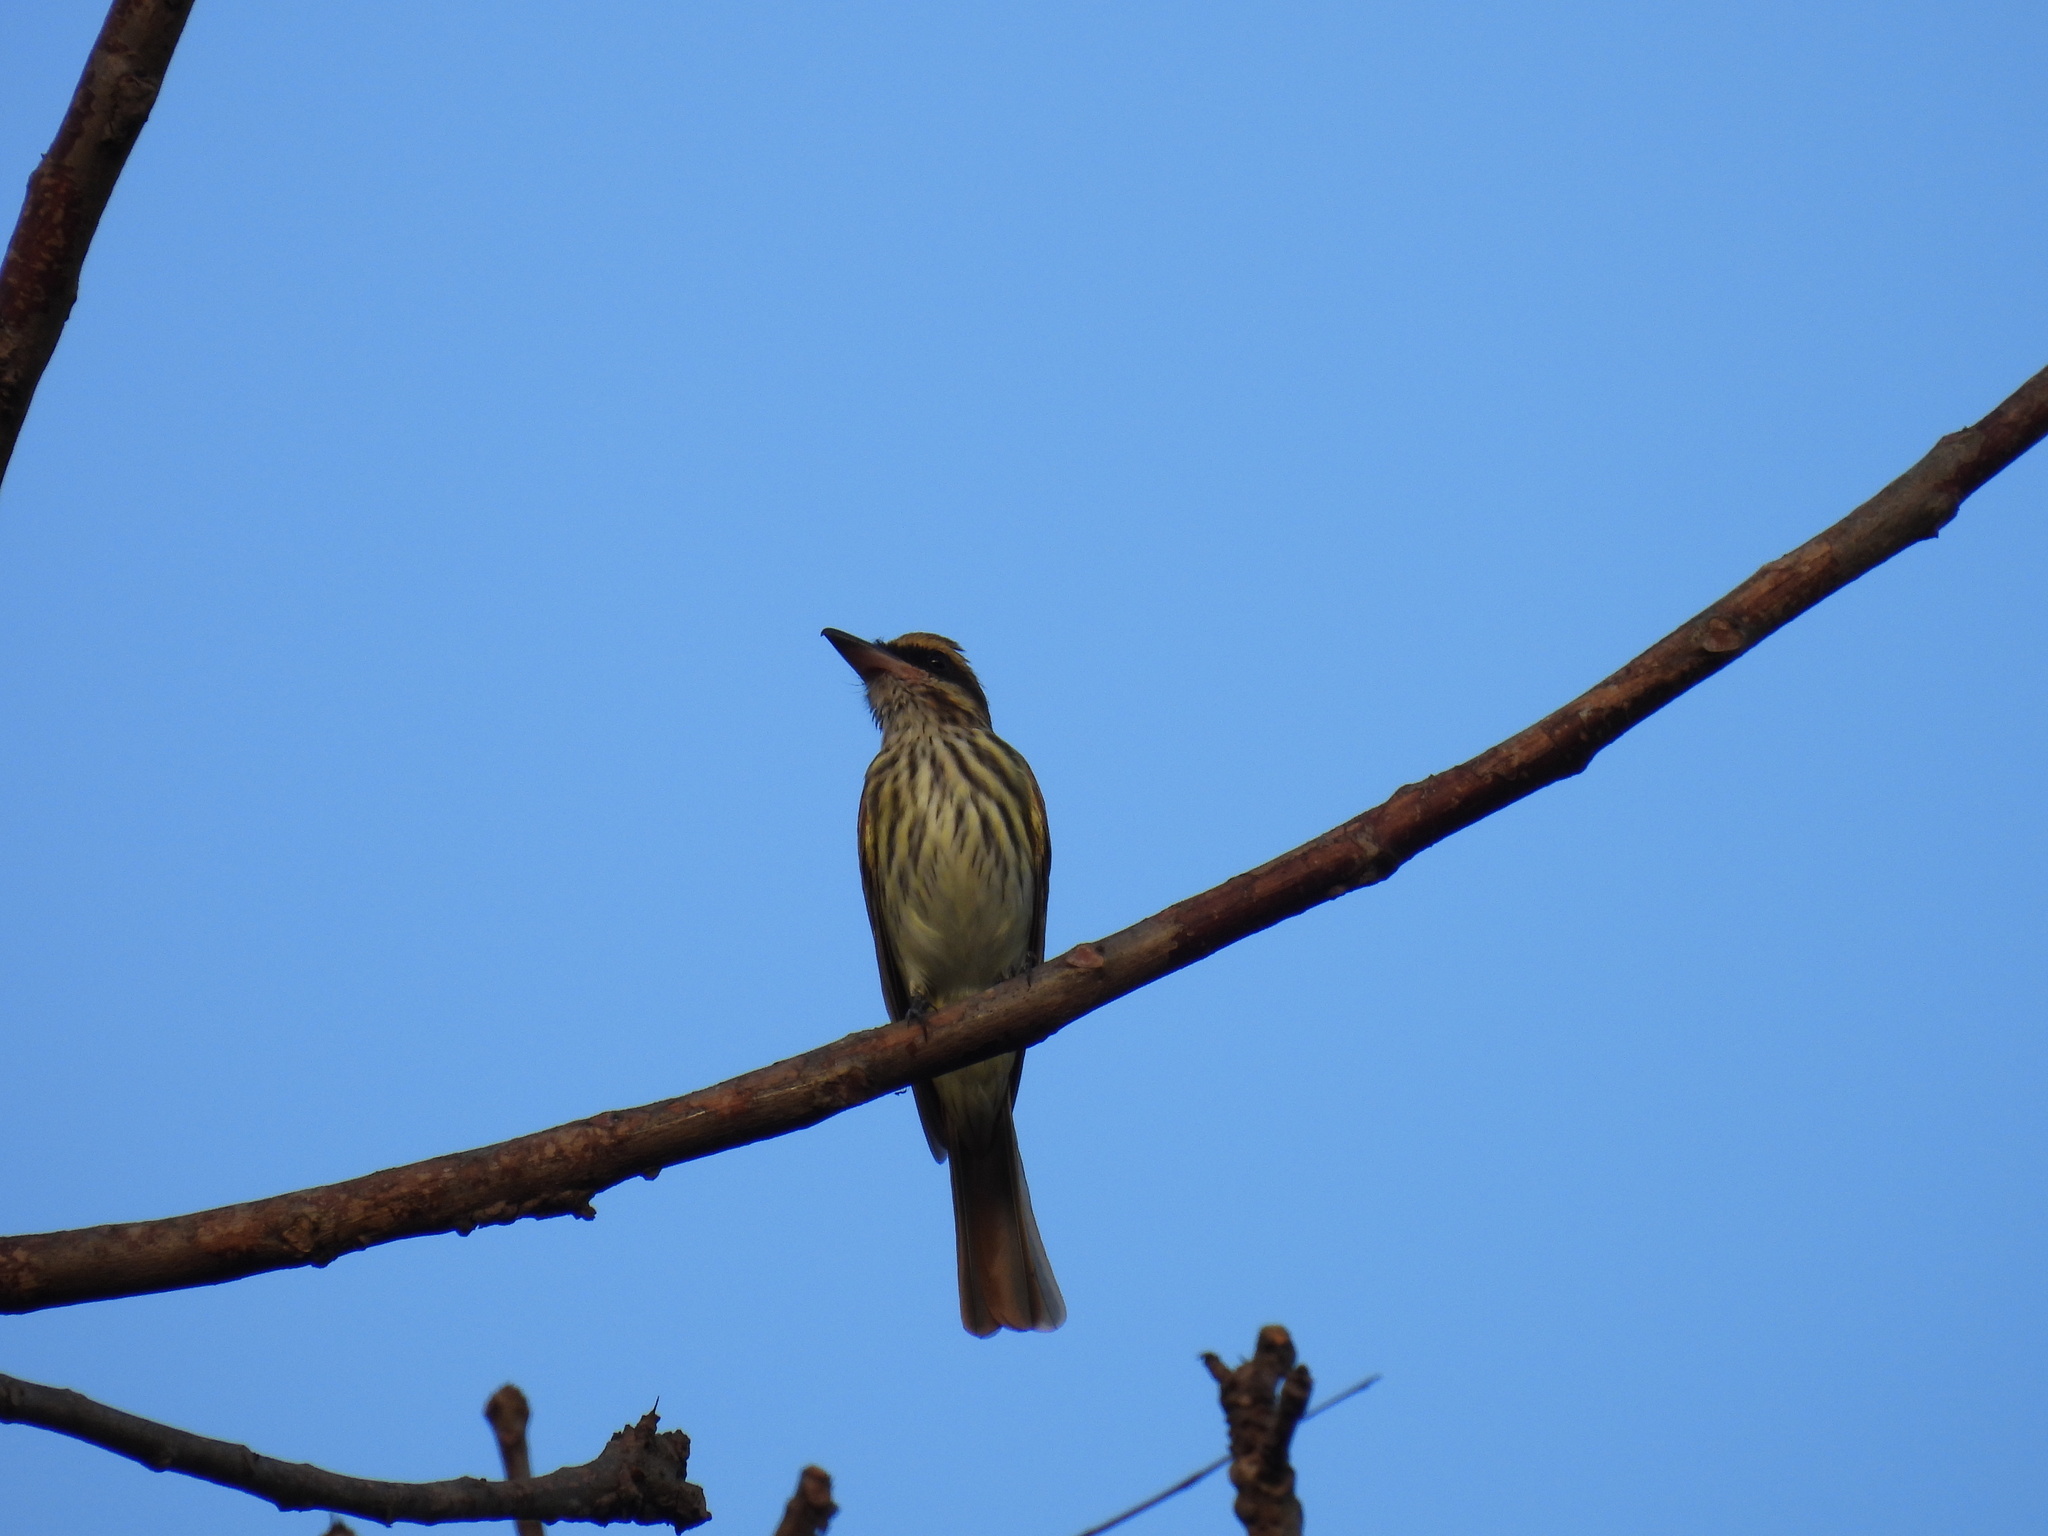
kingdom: Animalia
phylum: Chordata
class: Aves
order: Passeriformes
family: Tyrannidae
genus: Myiodynastes
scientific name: Myiodynastes maculatus
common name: Streaked flycatcher
